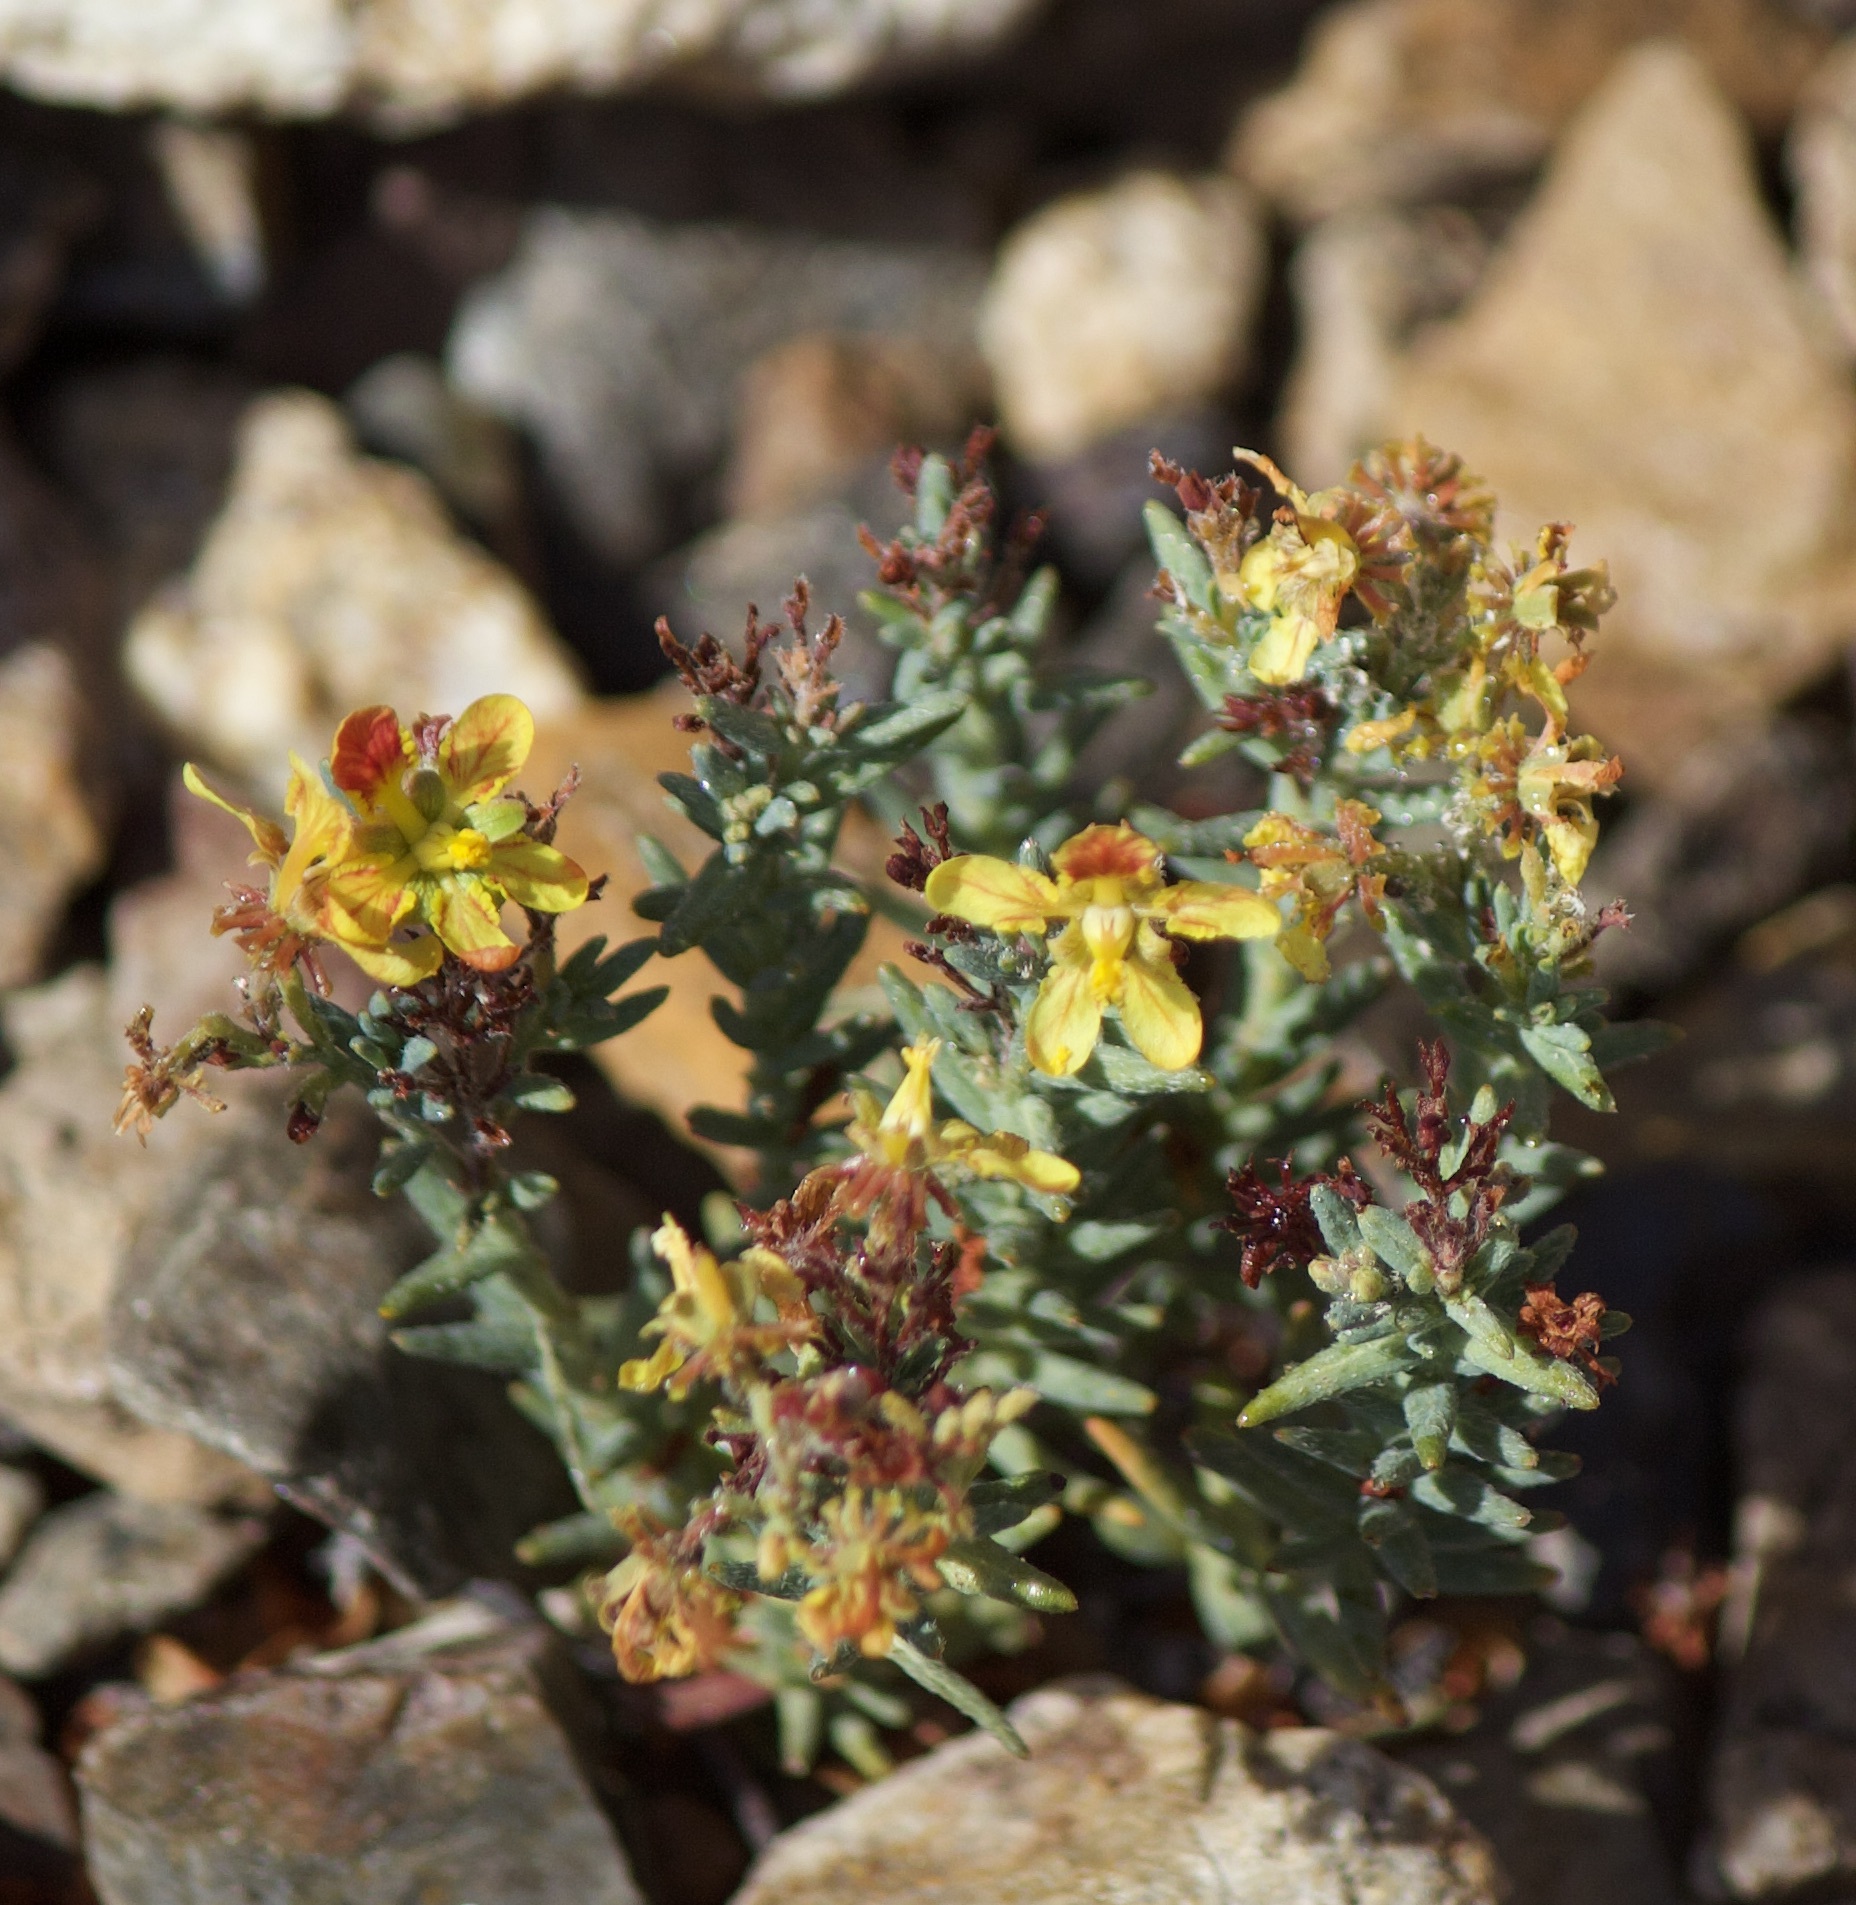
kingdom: Plantae
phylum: Tracheophyta
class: Magnoliopsida
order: Malpighiales
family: Malpighiaceae
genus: Dinemandra
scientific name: Dinemandra ericoides
